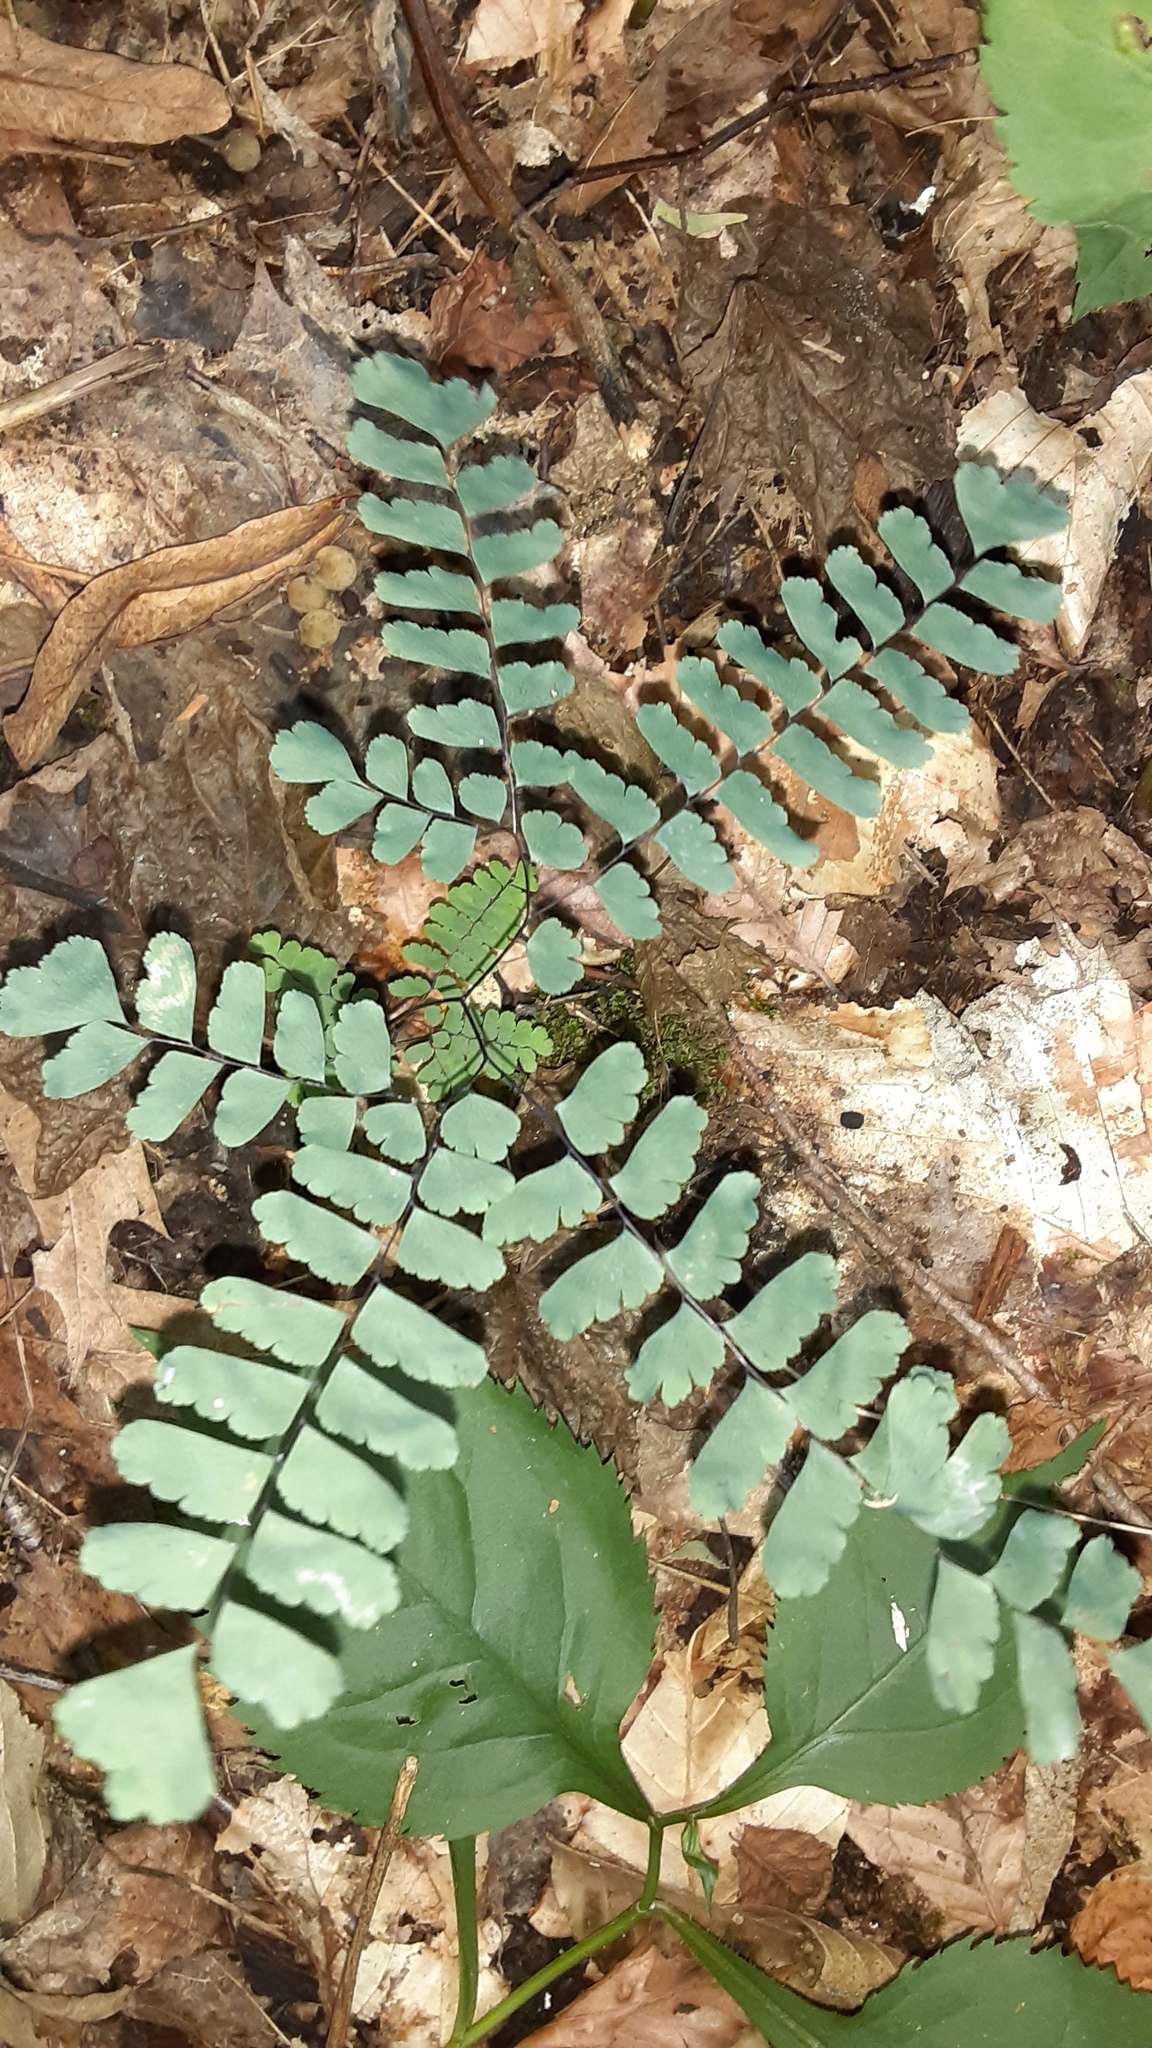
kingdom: Plantae
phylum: Tracheophyta
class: Polypodiopsida
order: Polypodiales
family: Pteridaceae
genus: Adiantum
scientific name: Adiantum pedatum
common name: Five-finger fern
